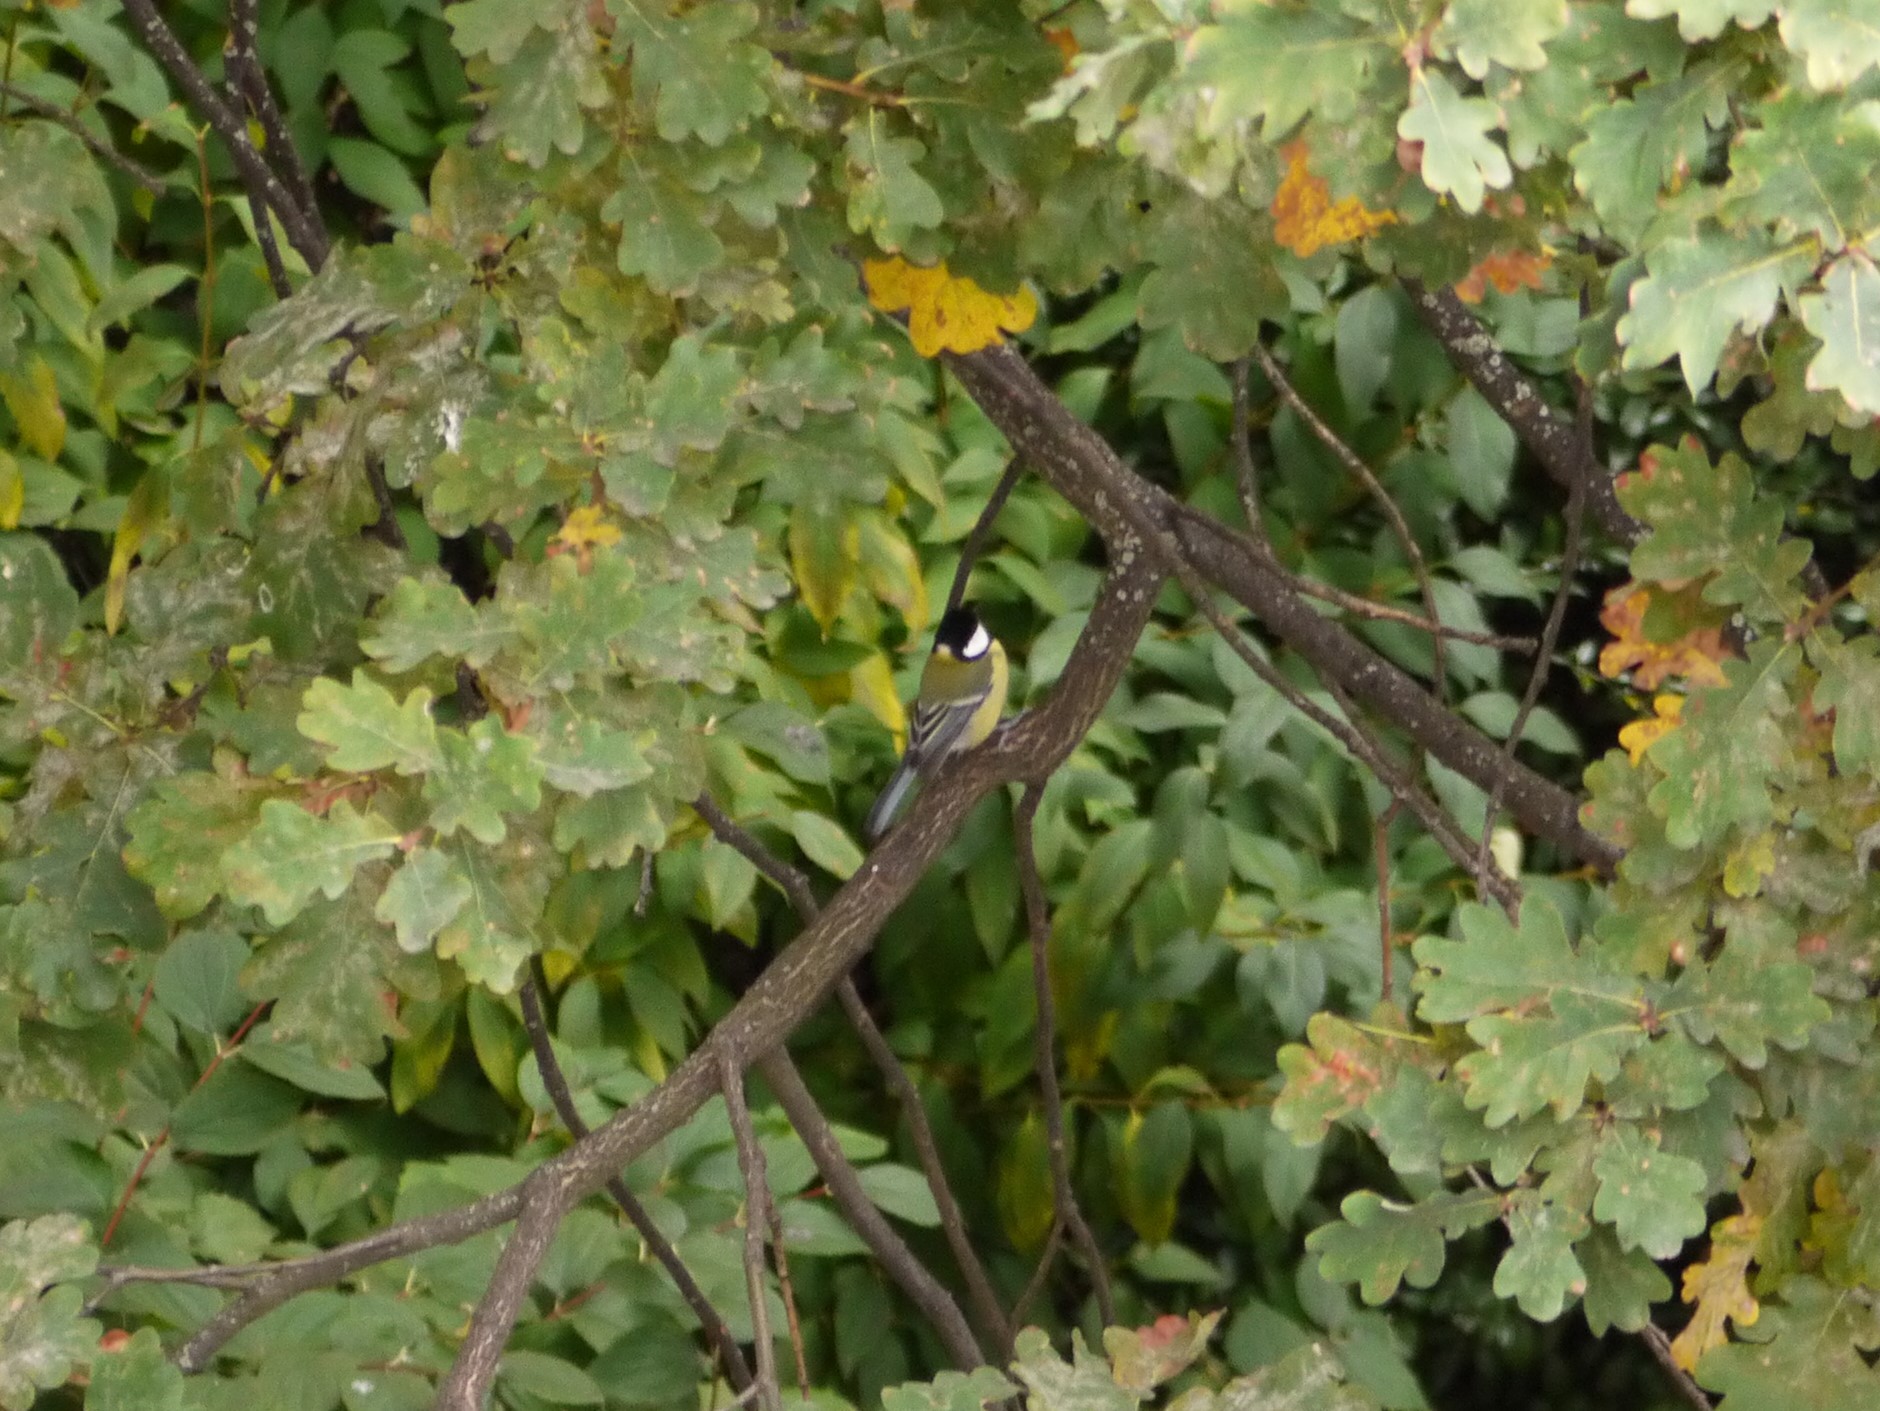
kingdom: Animalia
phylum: Chordata
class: Aves
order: Passeriformes
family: Paridae
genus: Parus
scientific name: Parus major
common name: Great tit
